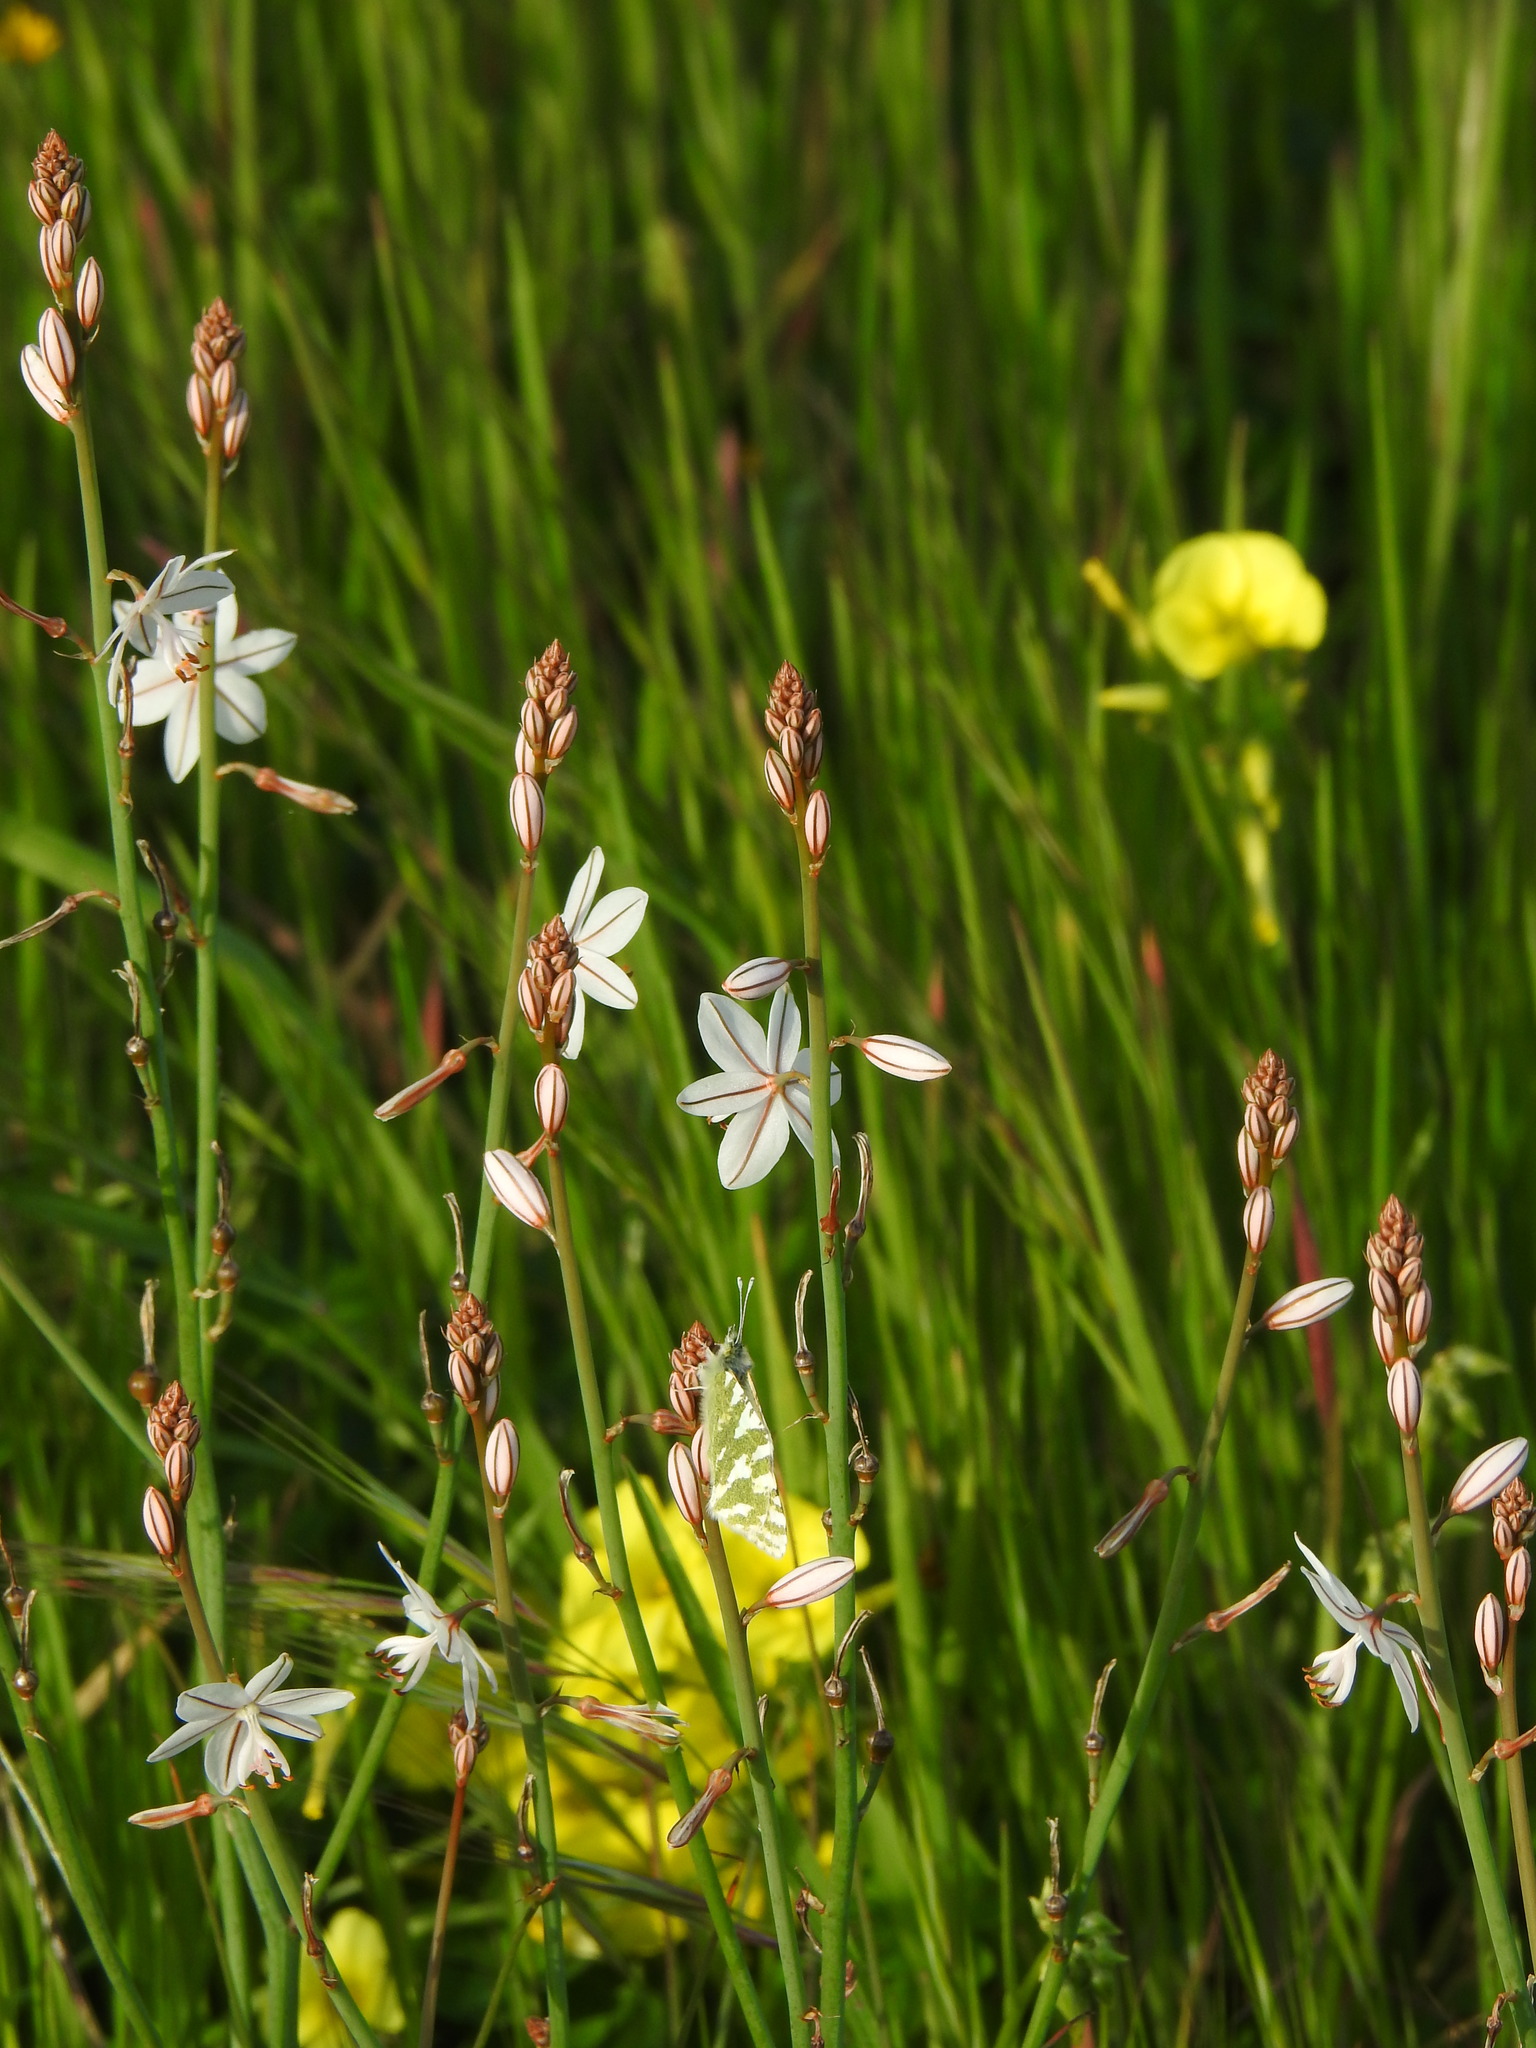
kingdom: Plantae
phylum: Tracheophyta
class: Liliopsida
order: Asparagales
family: Asphodelaceae
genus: Asphodelus
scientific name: Asphodelus fistulosus
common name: Onionweed
